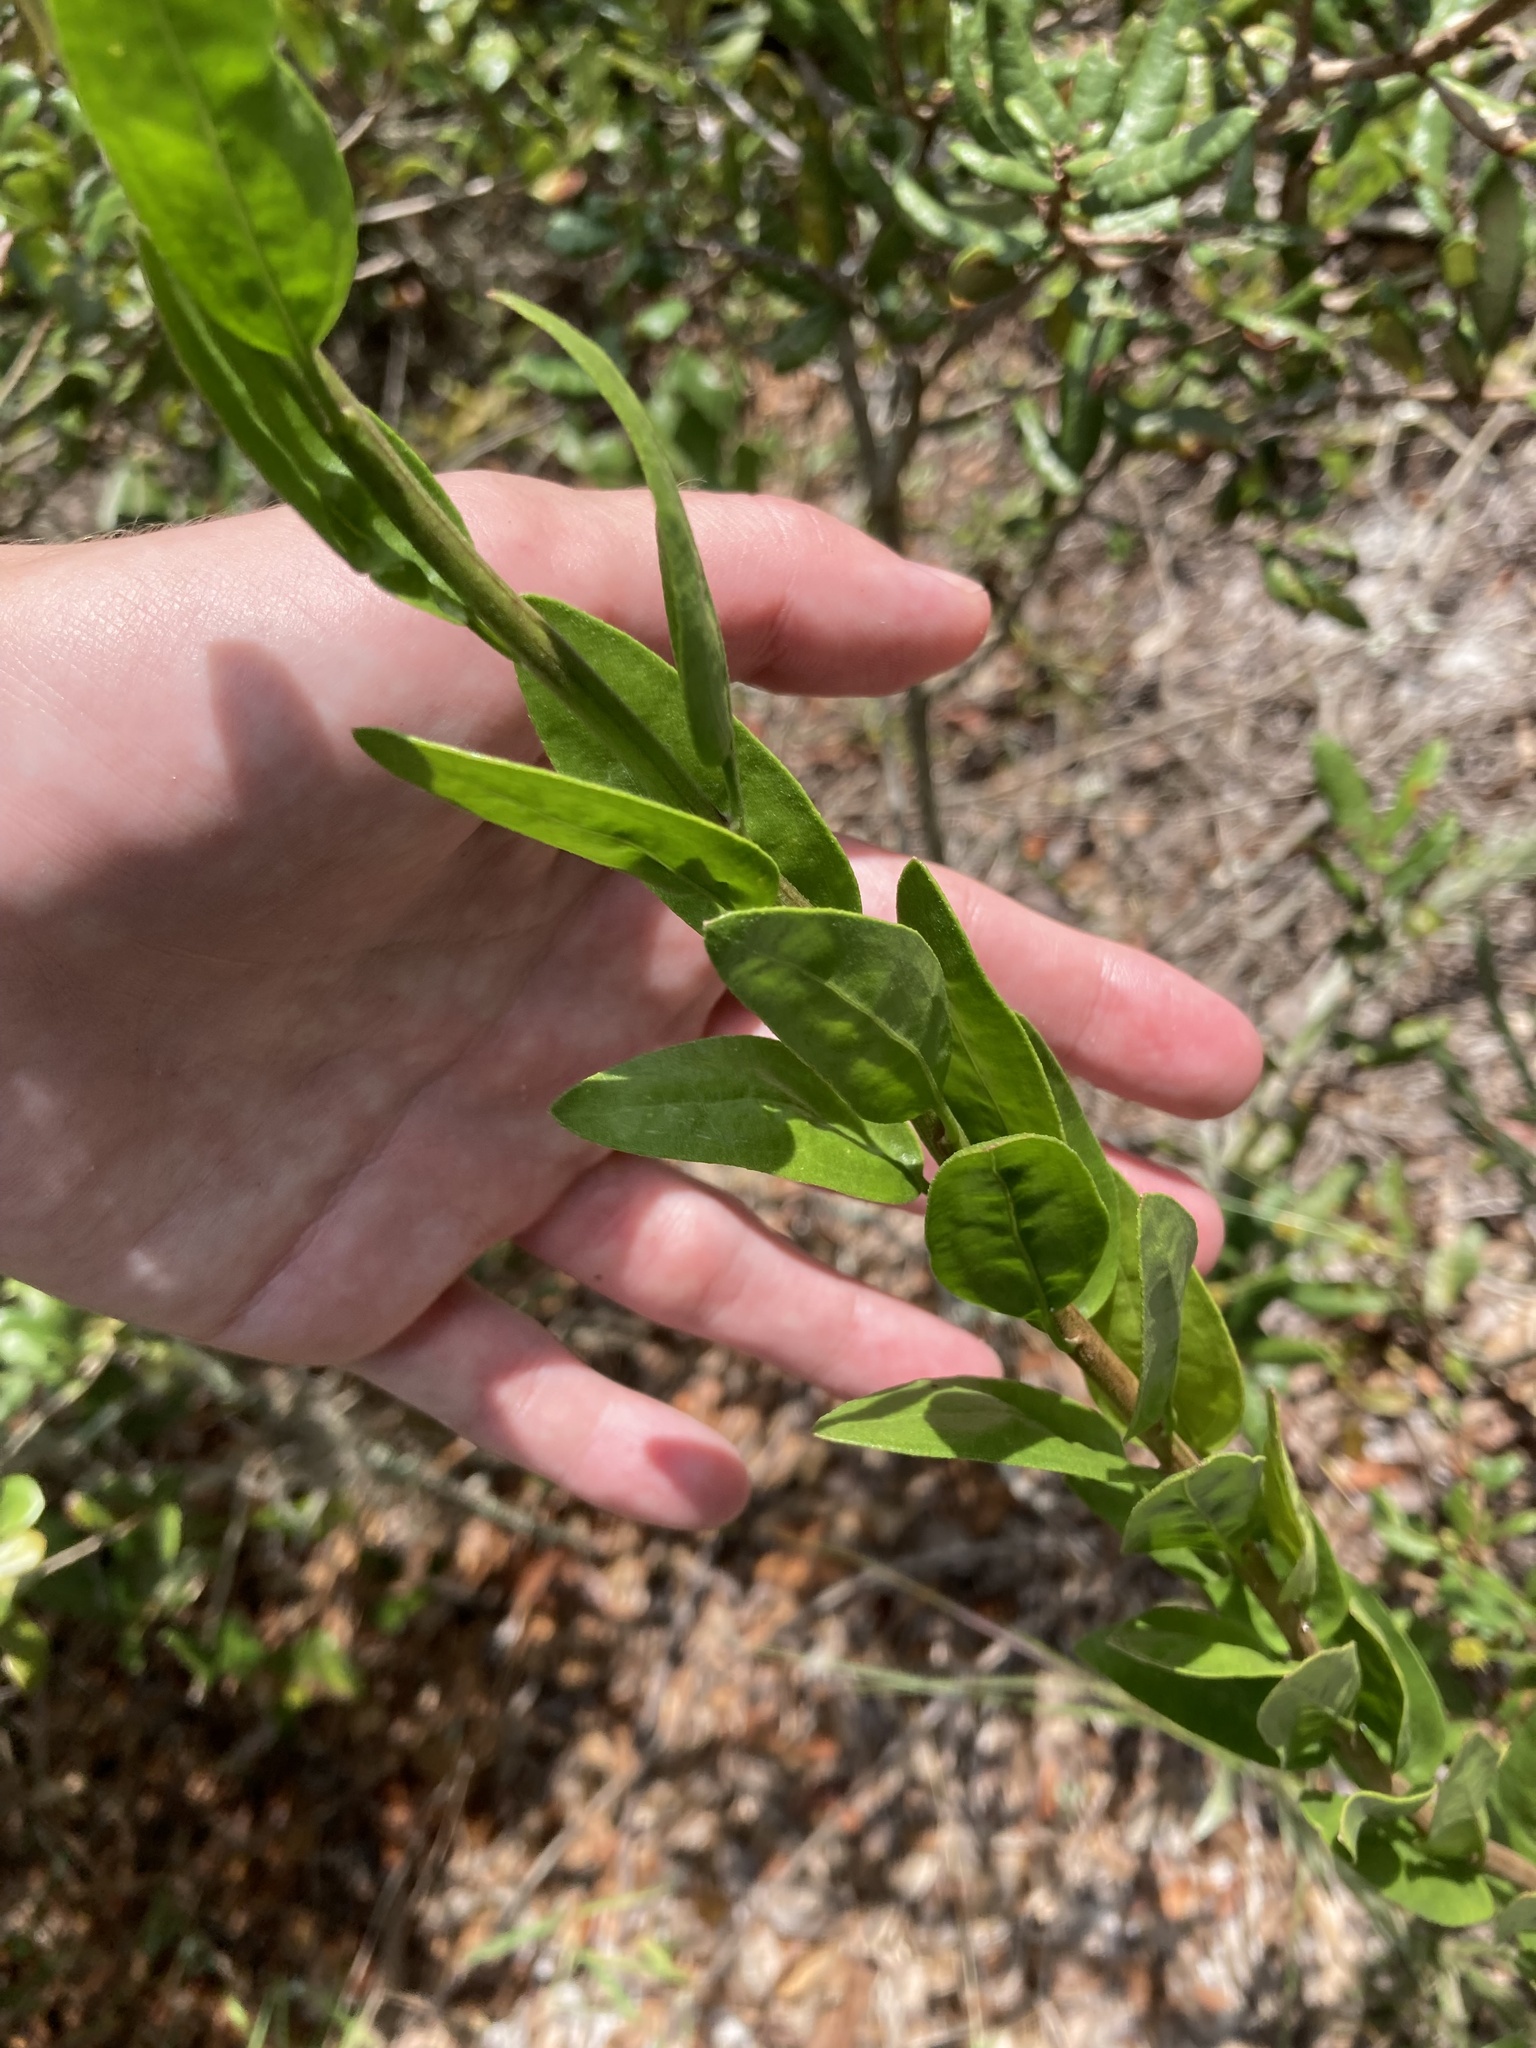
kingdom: Plantae
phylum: Tracheophyta
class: Magnoliopsida
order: Asterales
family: Asteraceae
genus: Palafoxia
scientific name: Palafoxia feayi
